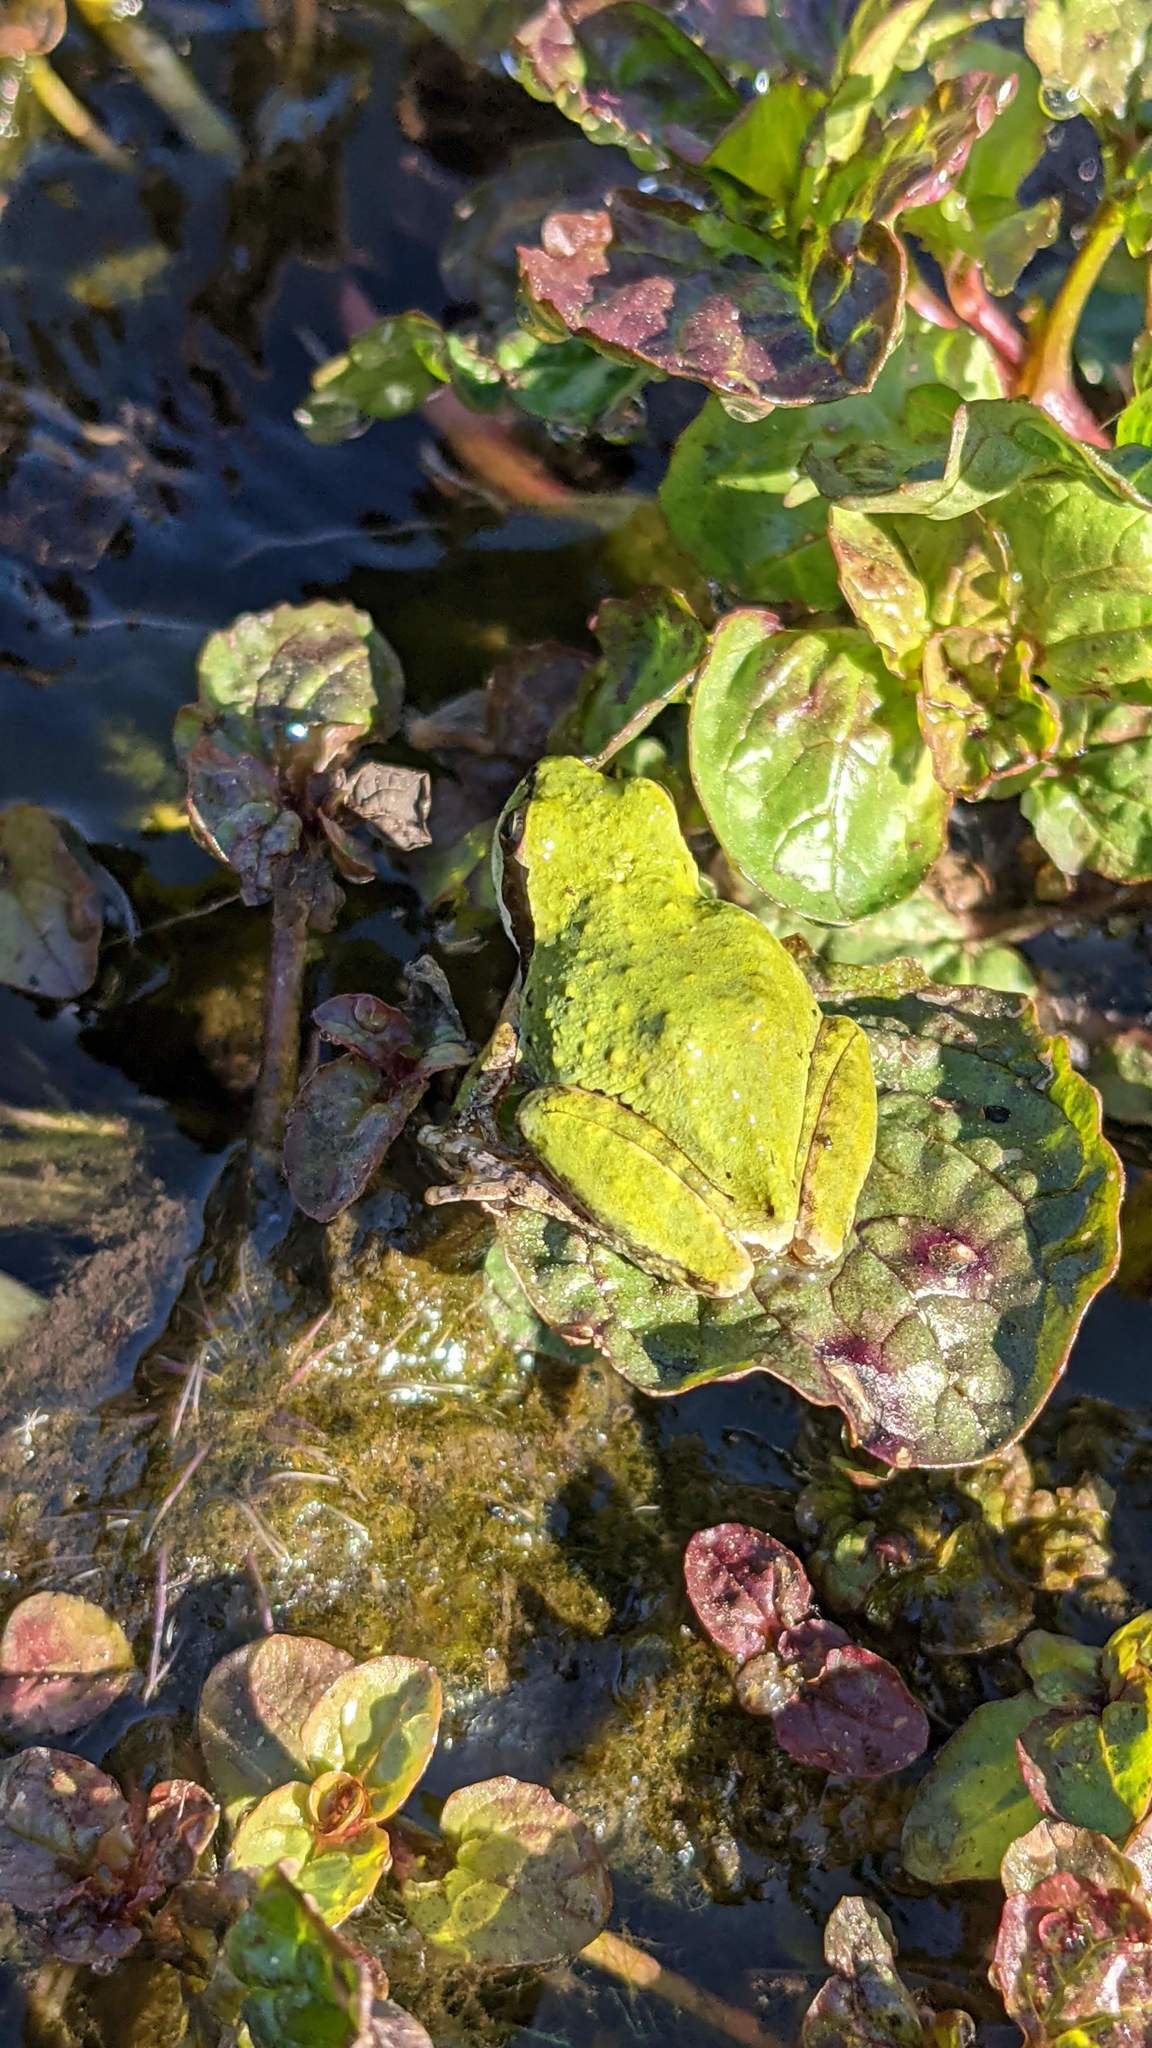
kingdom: Animalia
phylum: Chordata
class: Amphibia
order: Anura
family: Hylidae
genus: Pseudacris
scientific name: Pseudacris regilla
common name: Pacific chorus frog
